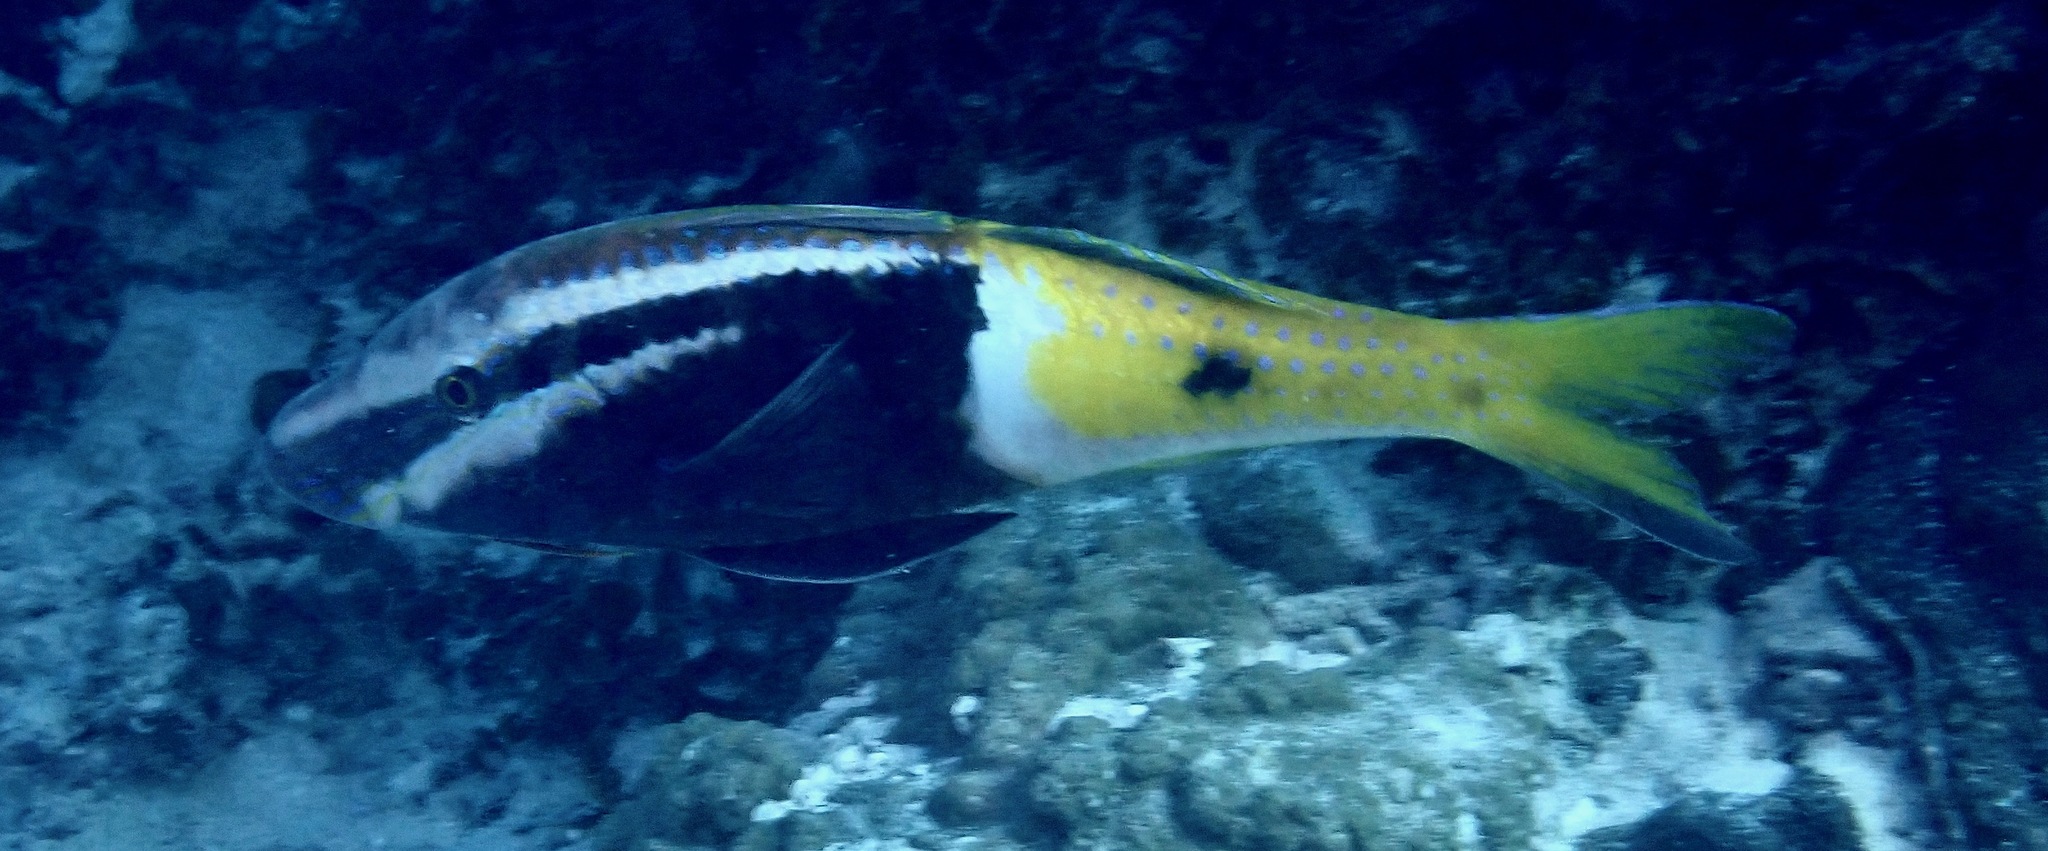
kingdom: Animalia
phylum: Chordata
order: Perciformes
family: Mullidae
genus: Parupeneus
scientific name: Parupeneus barberinoides
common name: Half-and-half goatfish
